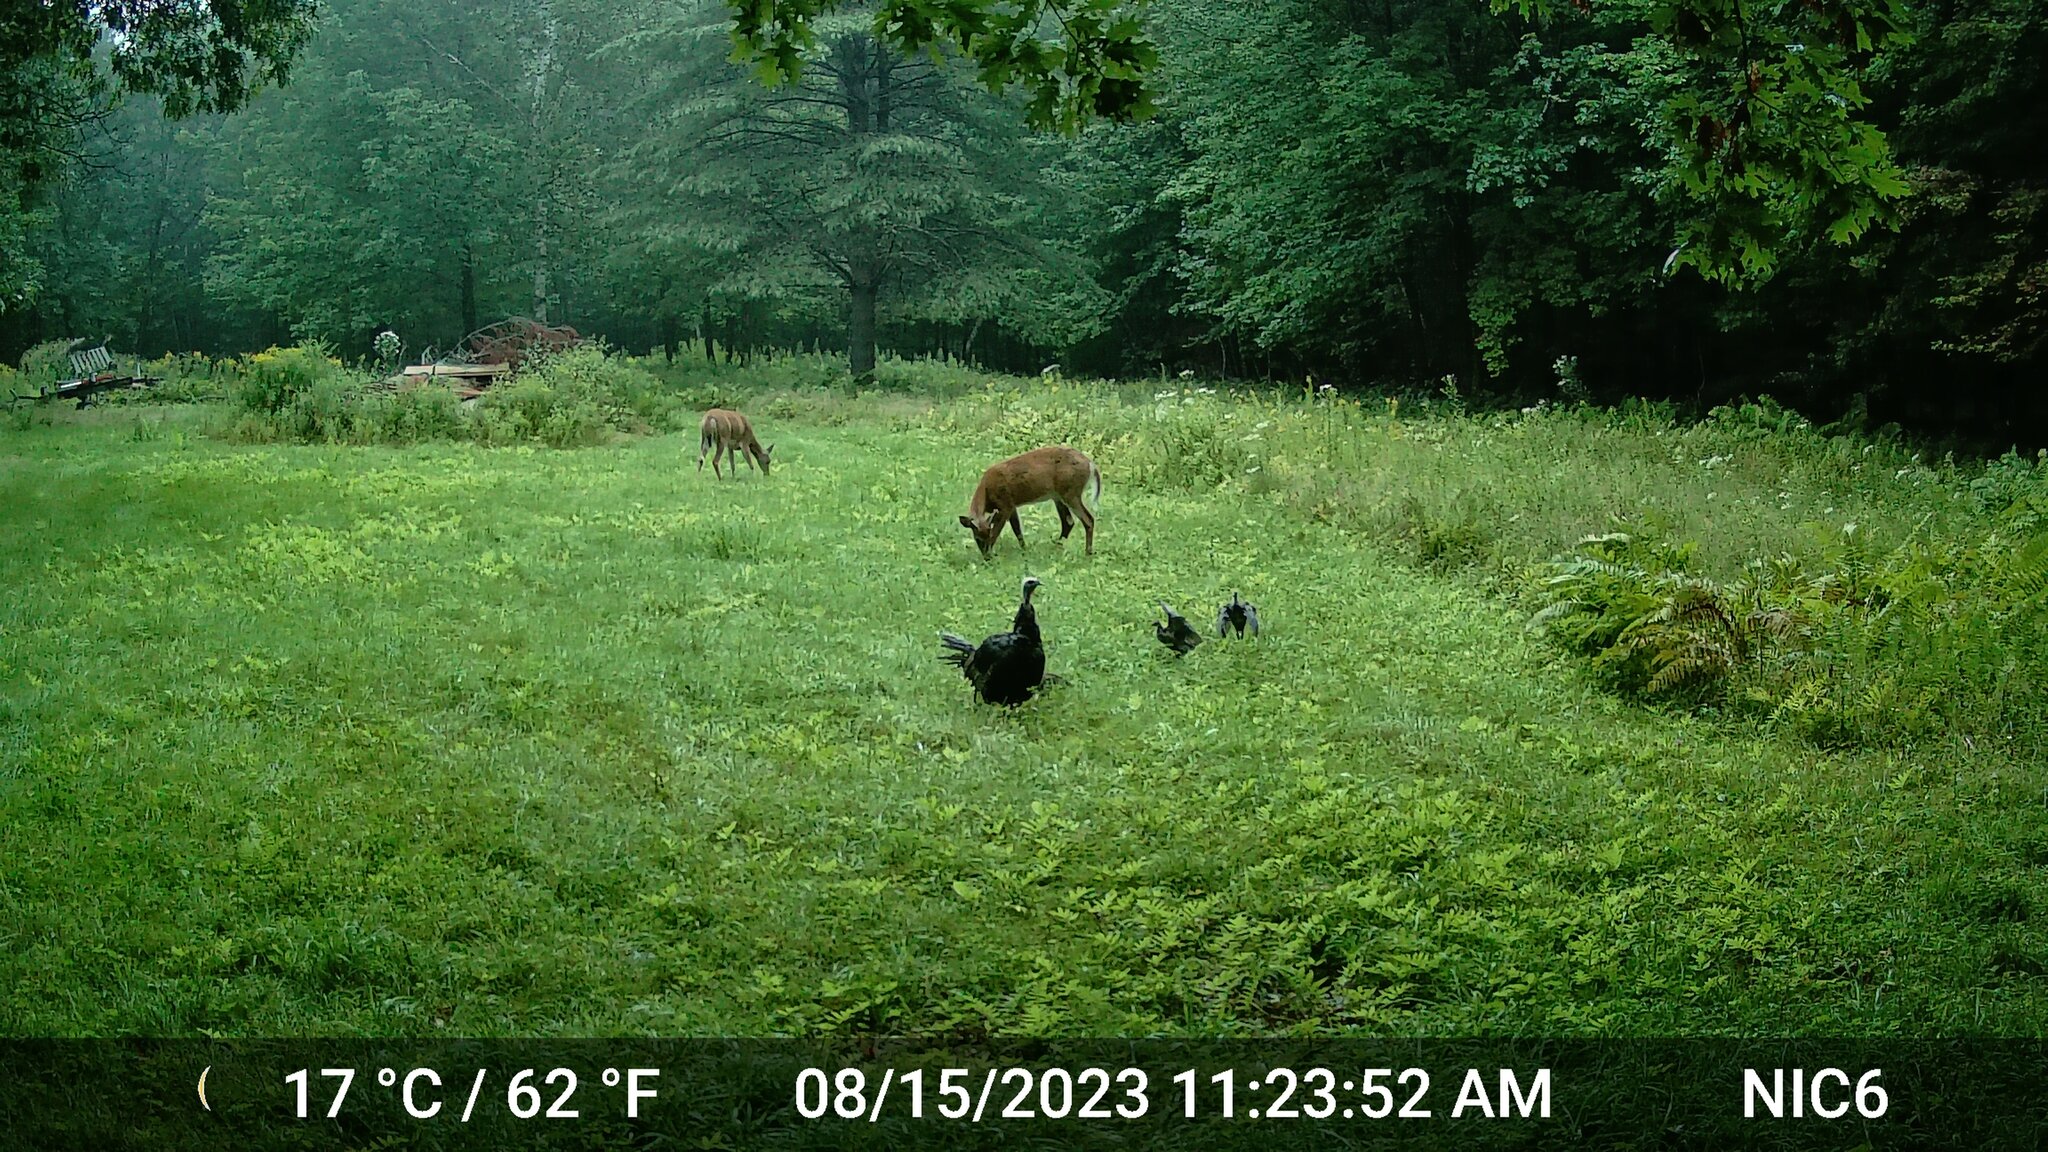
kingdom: Animalia
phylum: Chordata
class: Mammalia
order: Artiodactyla
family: Cervidae
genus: Odocoileus
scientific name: Odocoileus virginianus
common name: White-tailed deer
